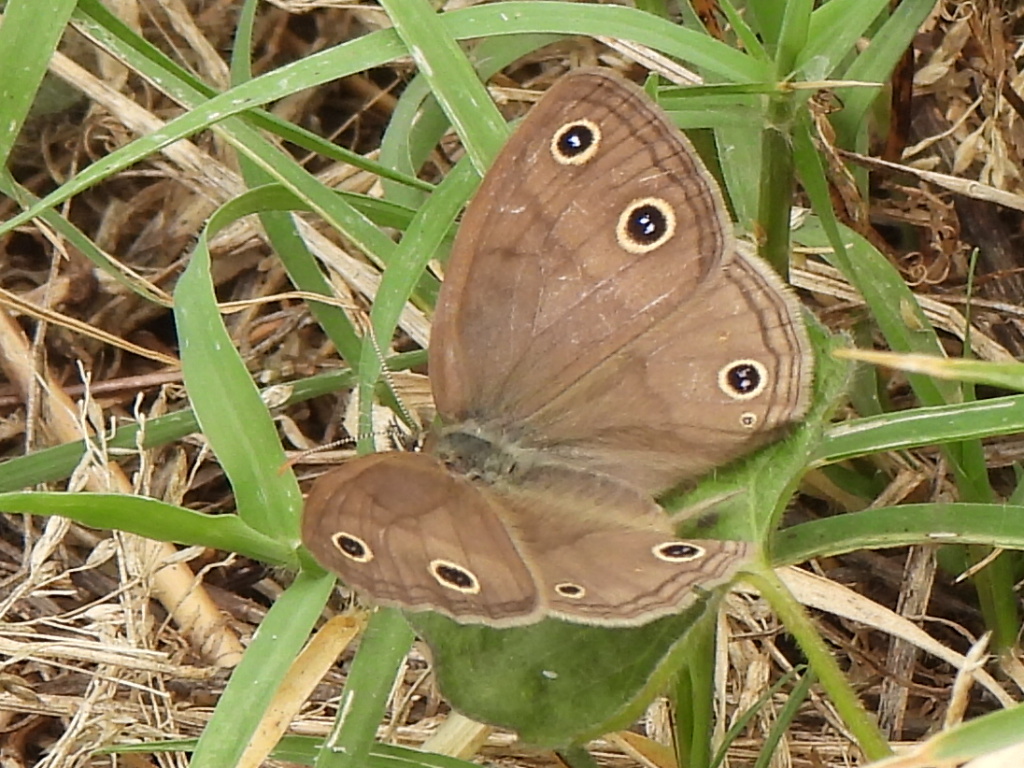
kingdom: Animalia
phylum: Arthropoda
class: Insecta
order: Lepidoptera
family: Nymphalidae
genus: Euptychia
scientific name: Euptychia cymela
